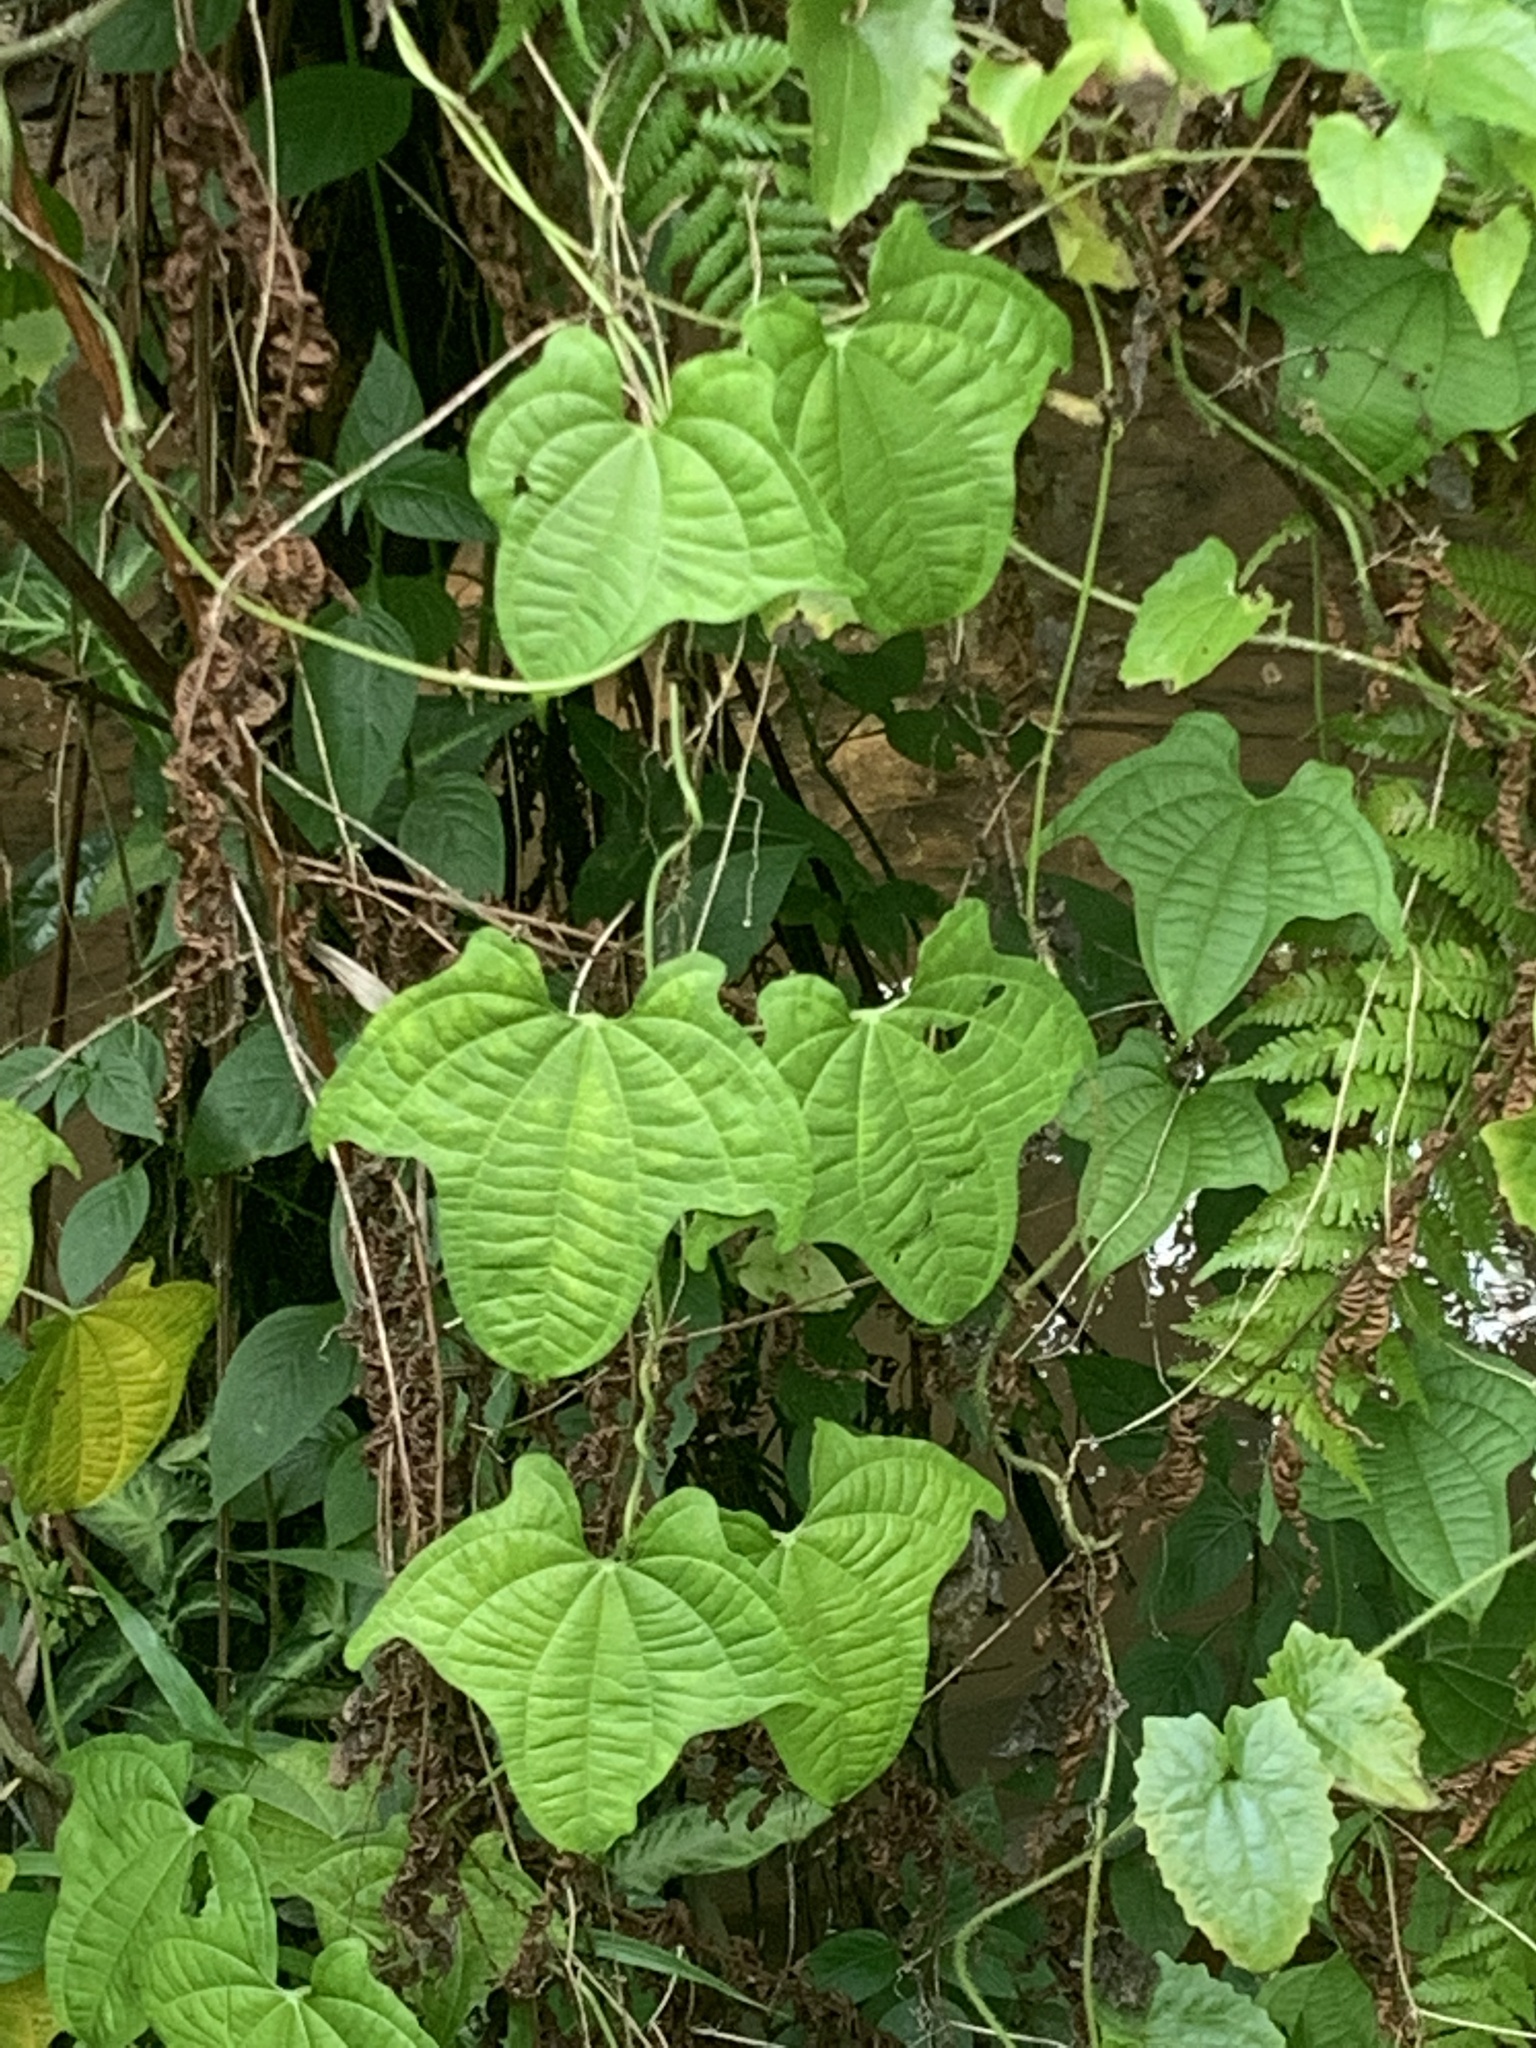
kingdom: Plantae
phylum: Tracheophyta
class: Liliopsida
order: Dioscoreales
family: Dioscoreaceae
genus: Dioscorea
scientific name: Dioscorea sansibarensis
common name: Zanzibar yam
